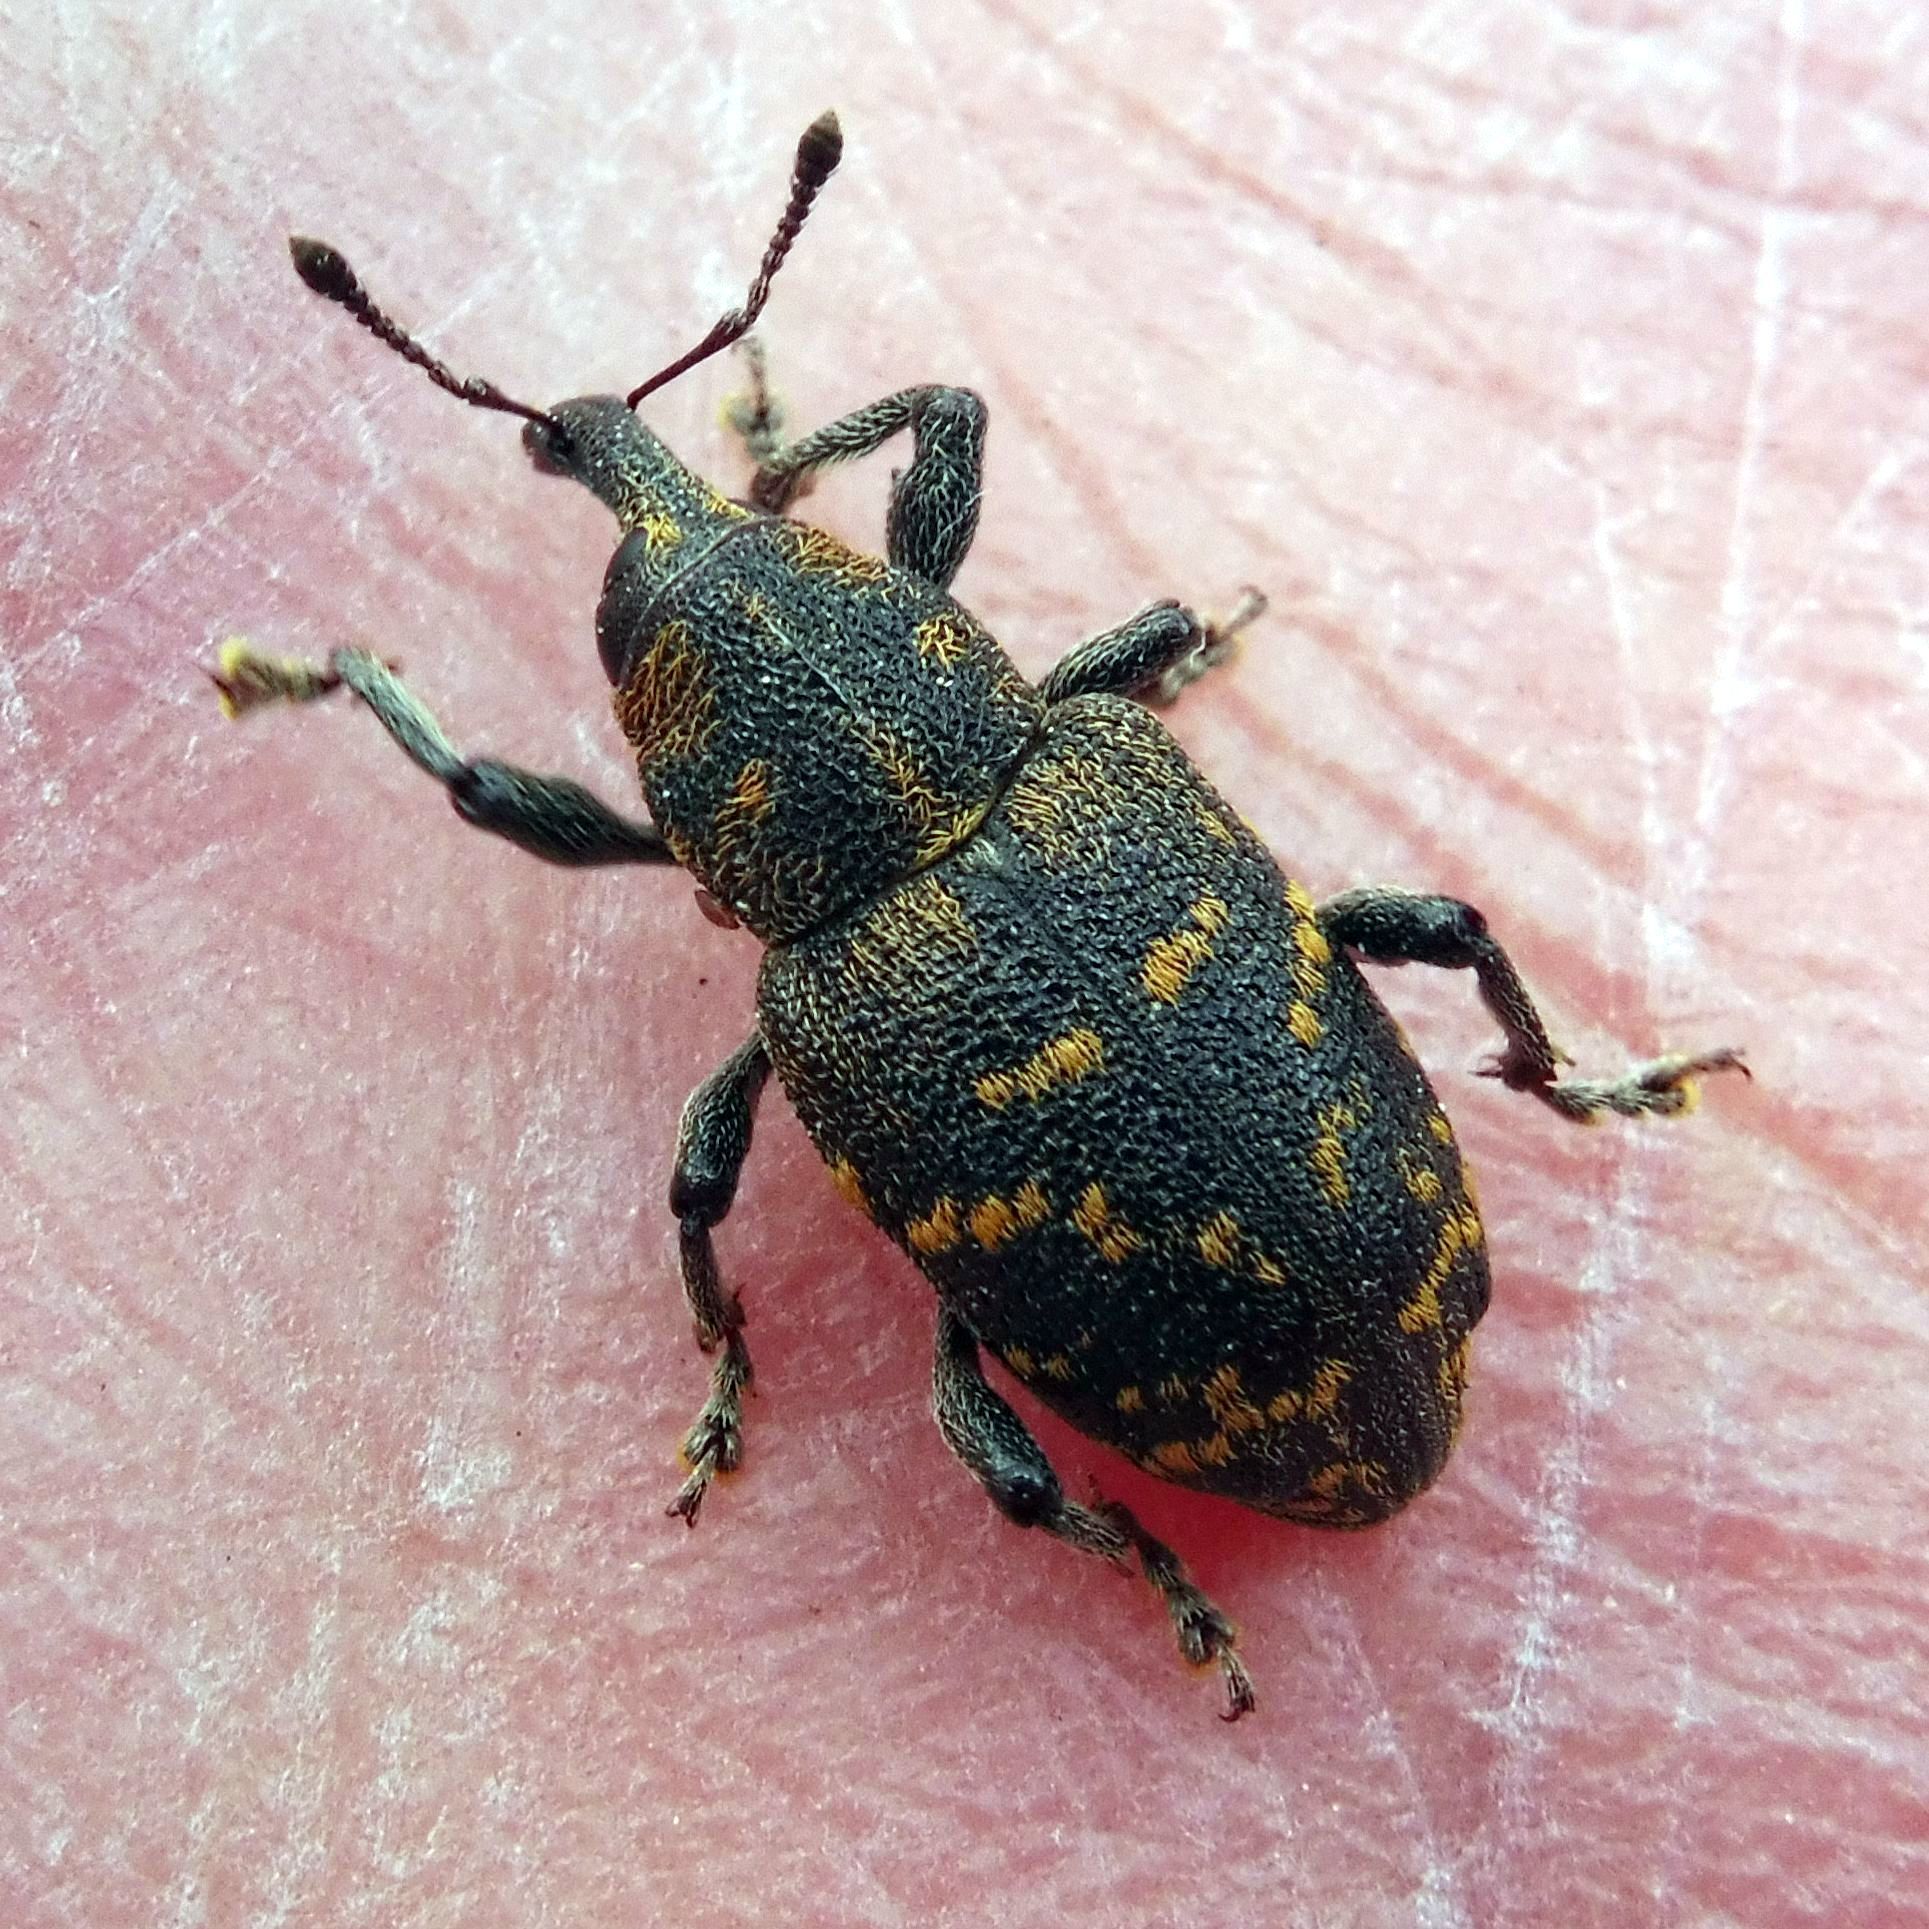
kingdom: Animalia
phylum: Arthropoda
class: Insecta
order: Coleoptera
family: Curculionidae
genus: Hylobius
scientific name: Hylobius abietis
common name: Large pine weevil
